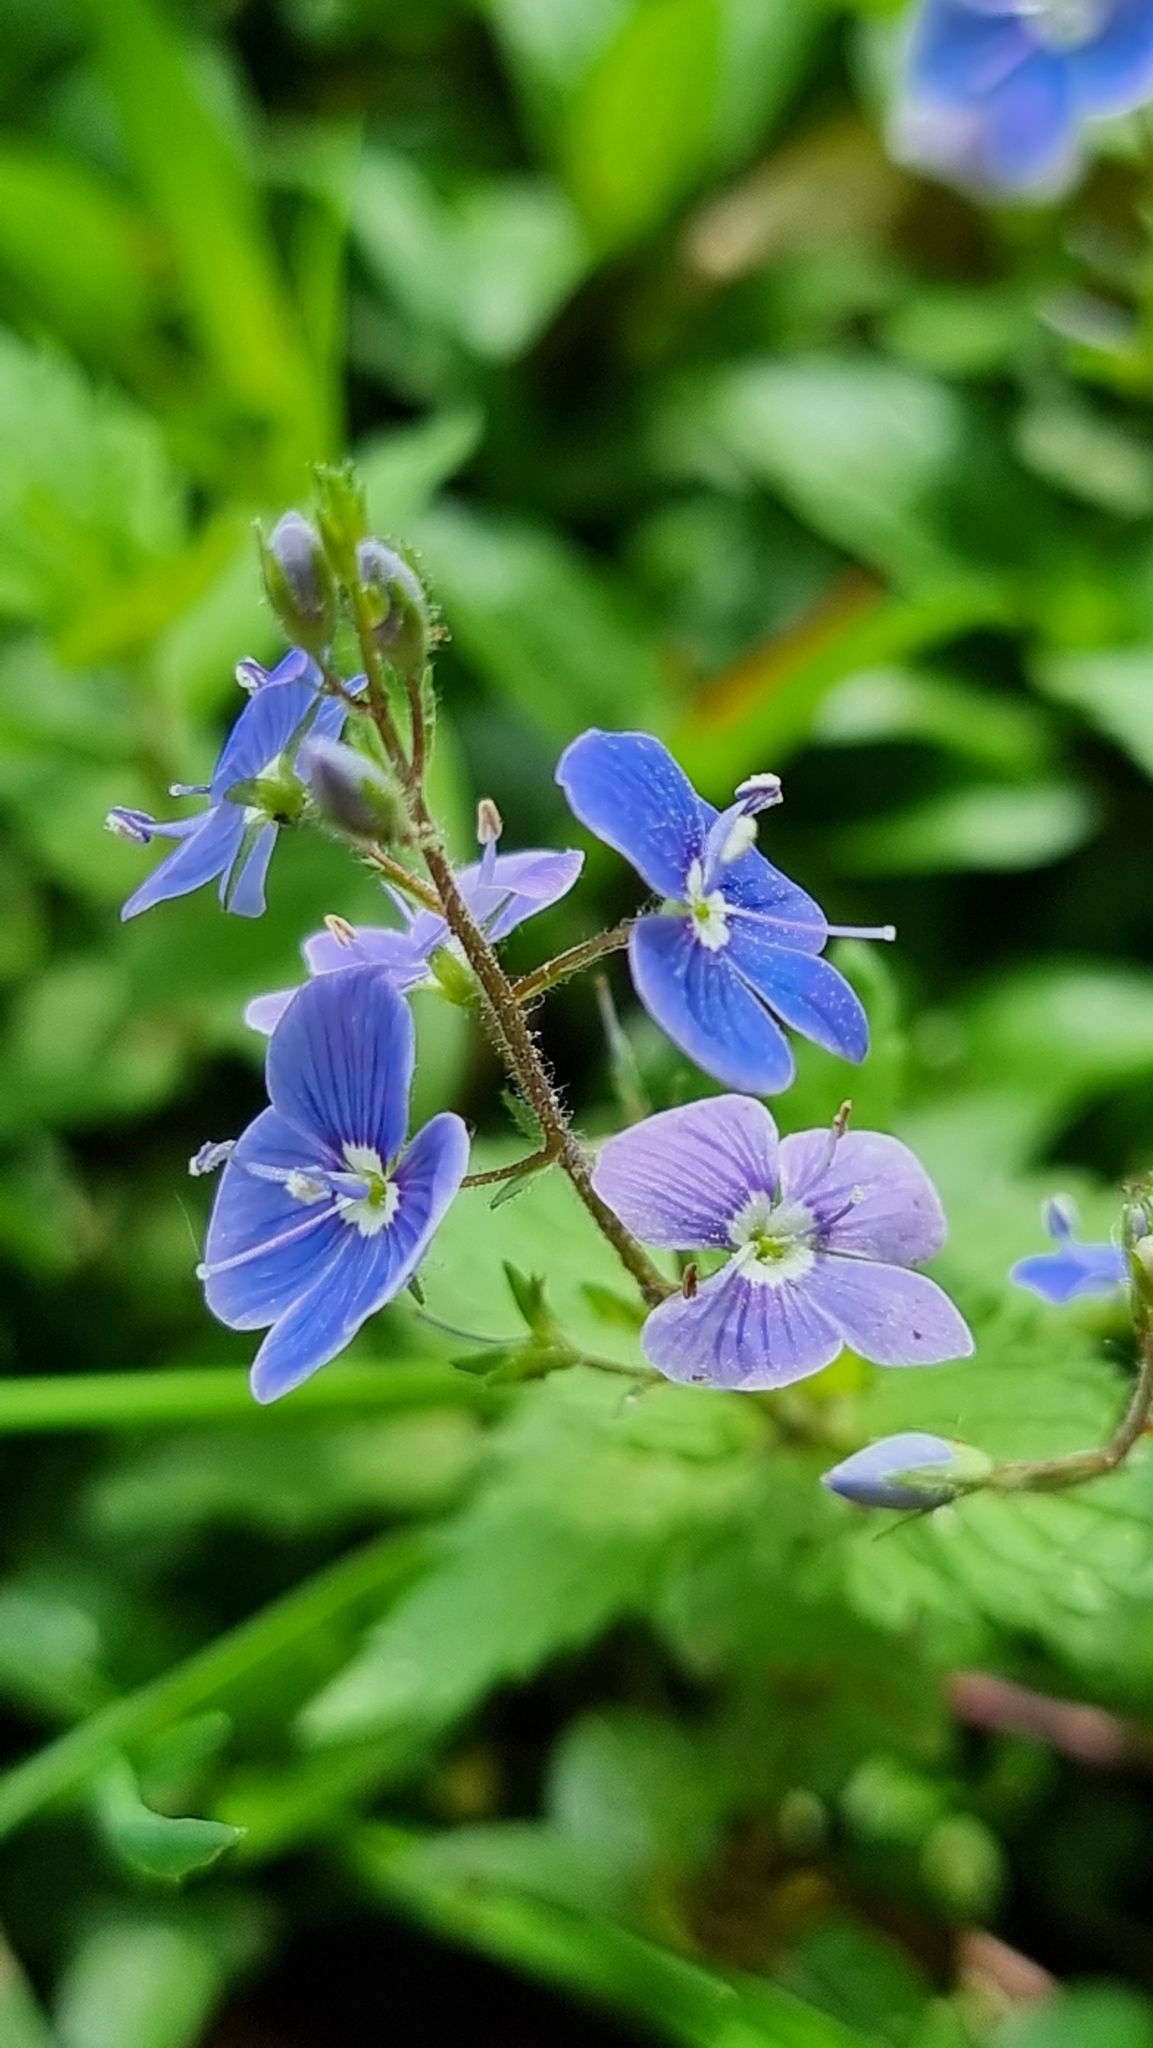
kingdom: Plantae
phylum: Tracheophyta
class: Magnoliopsida
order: Lamiales
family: Plantaginaceae
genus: Veronica
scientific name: Veronica chamaedrys
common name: Germander speedwell
